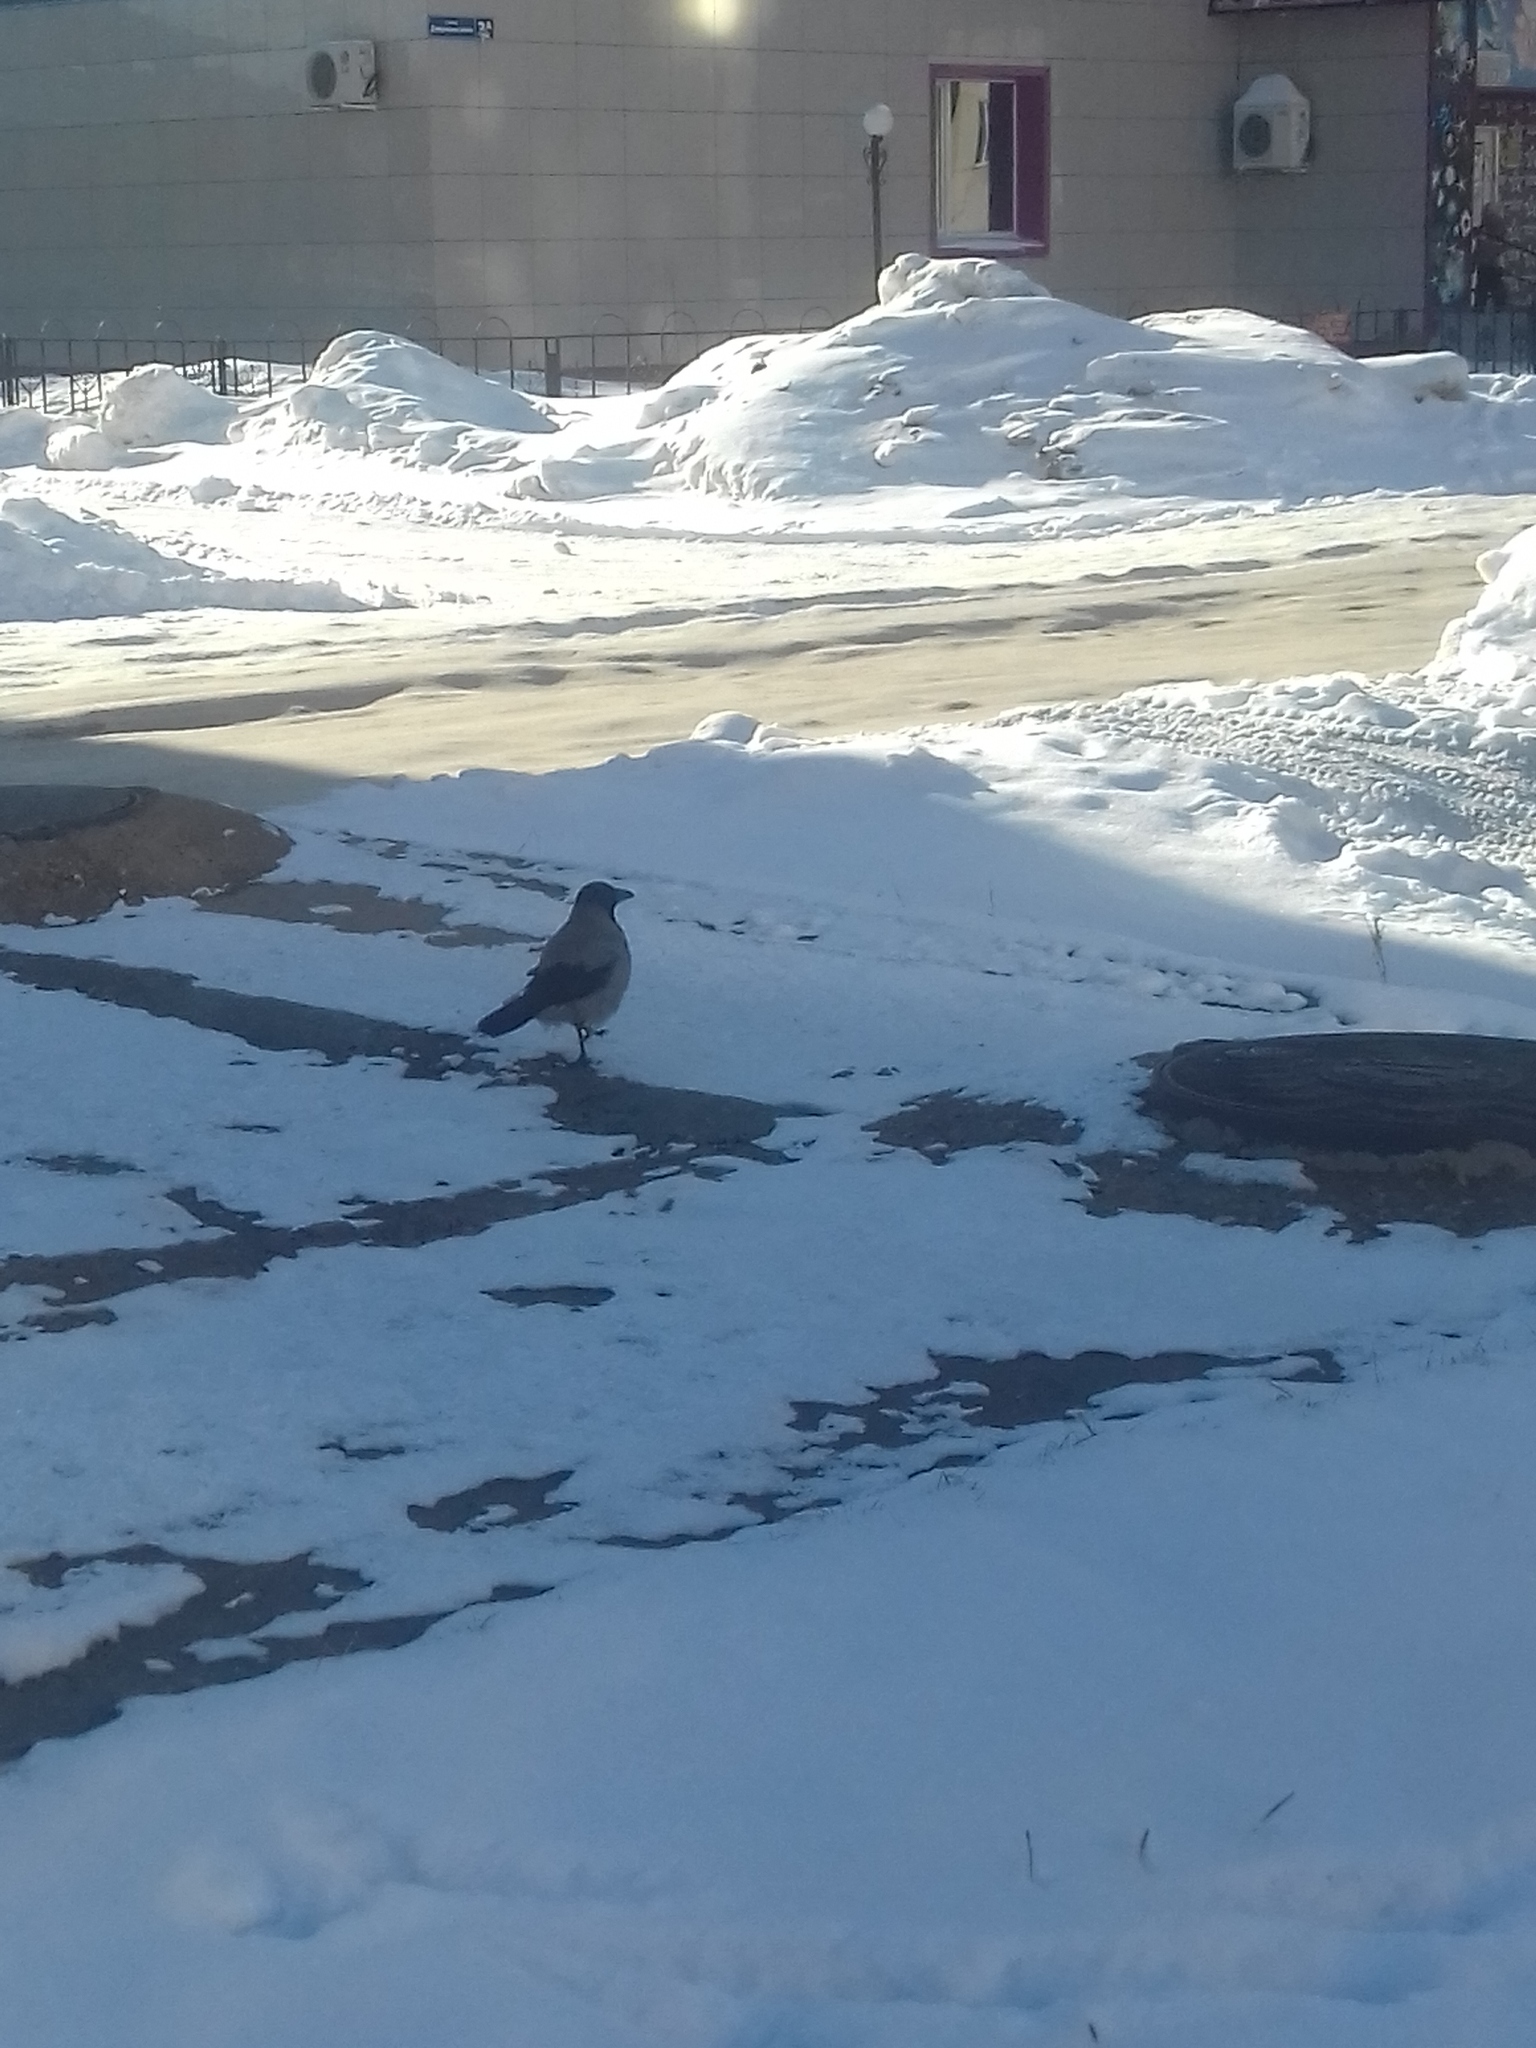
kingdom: Animalia
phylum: Chordata
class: Aves
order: Passeriformes
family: Corvidae
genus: Corvus
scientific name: Corvus cornix
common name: Hooded crow
